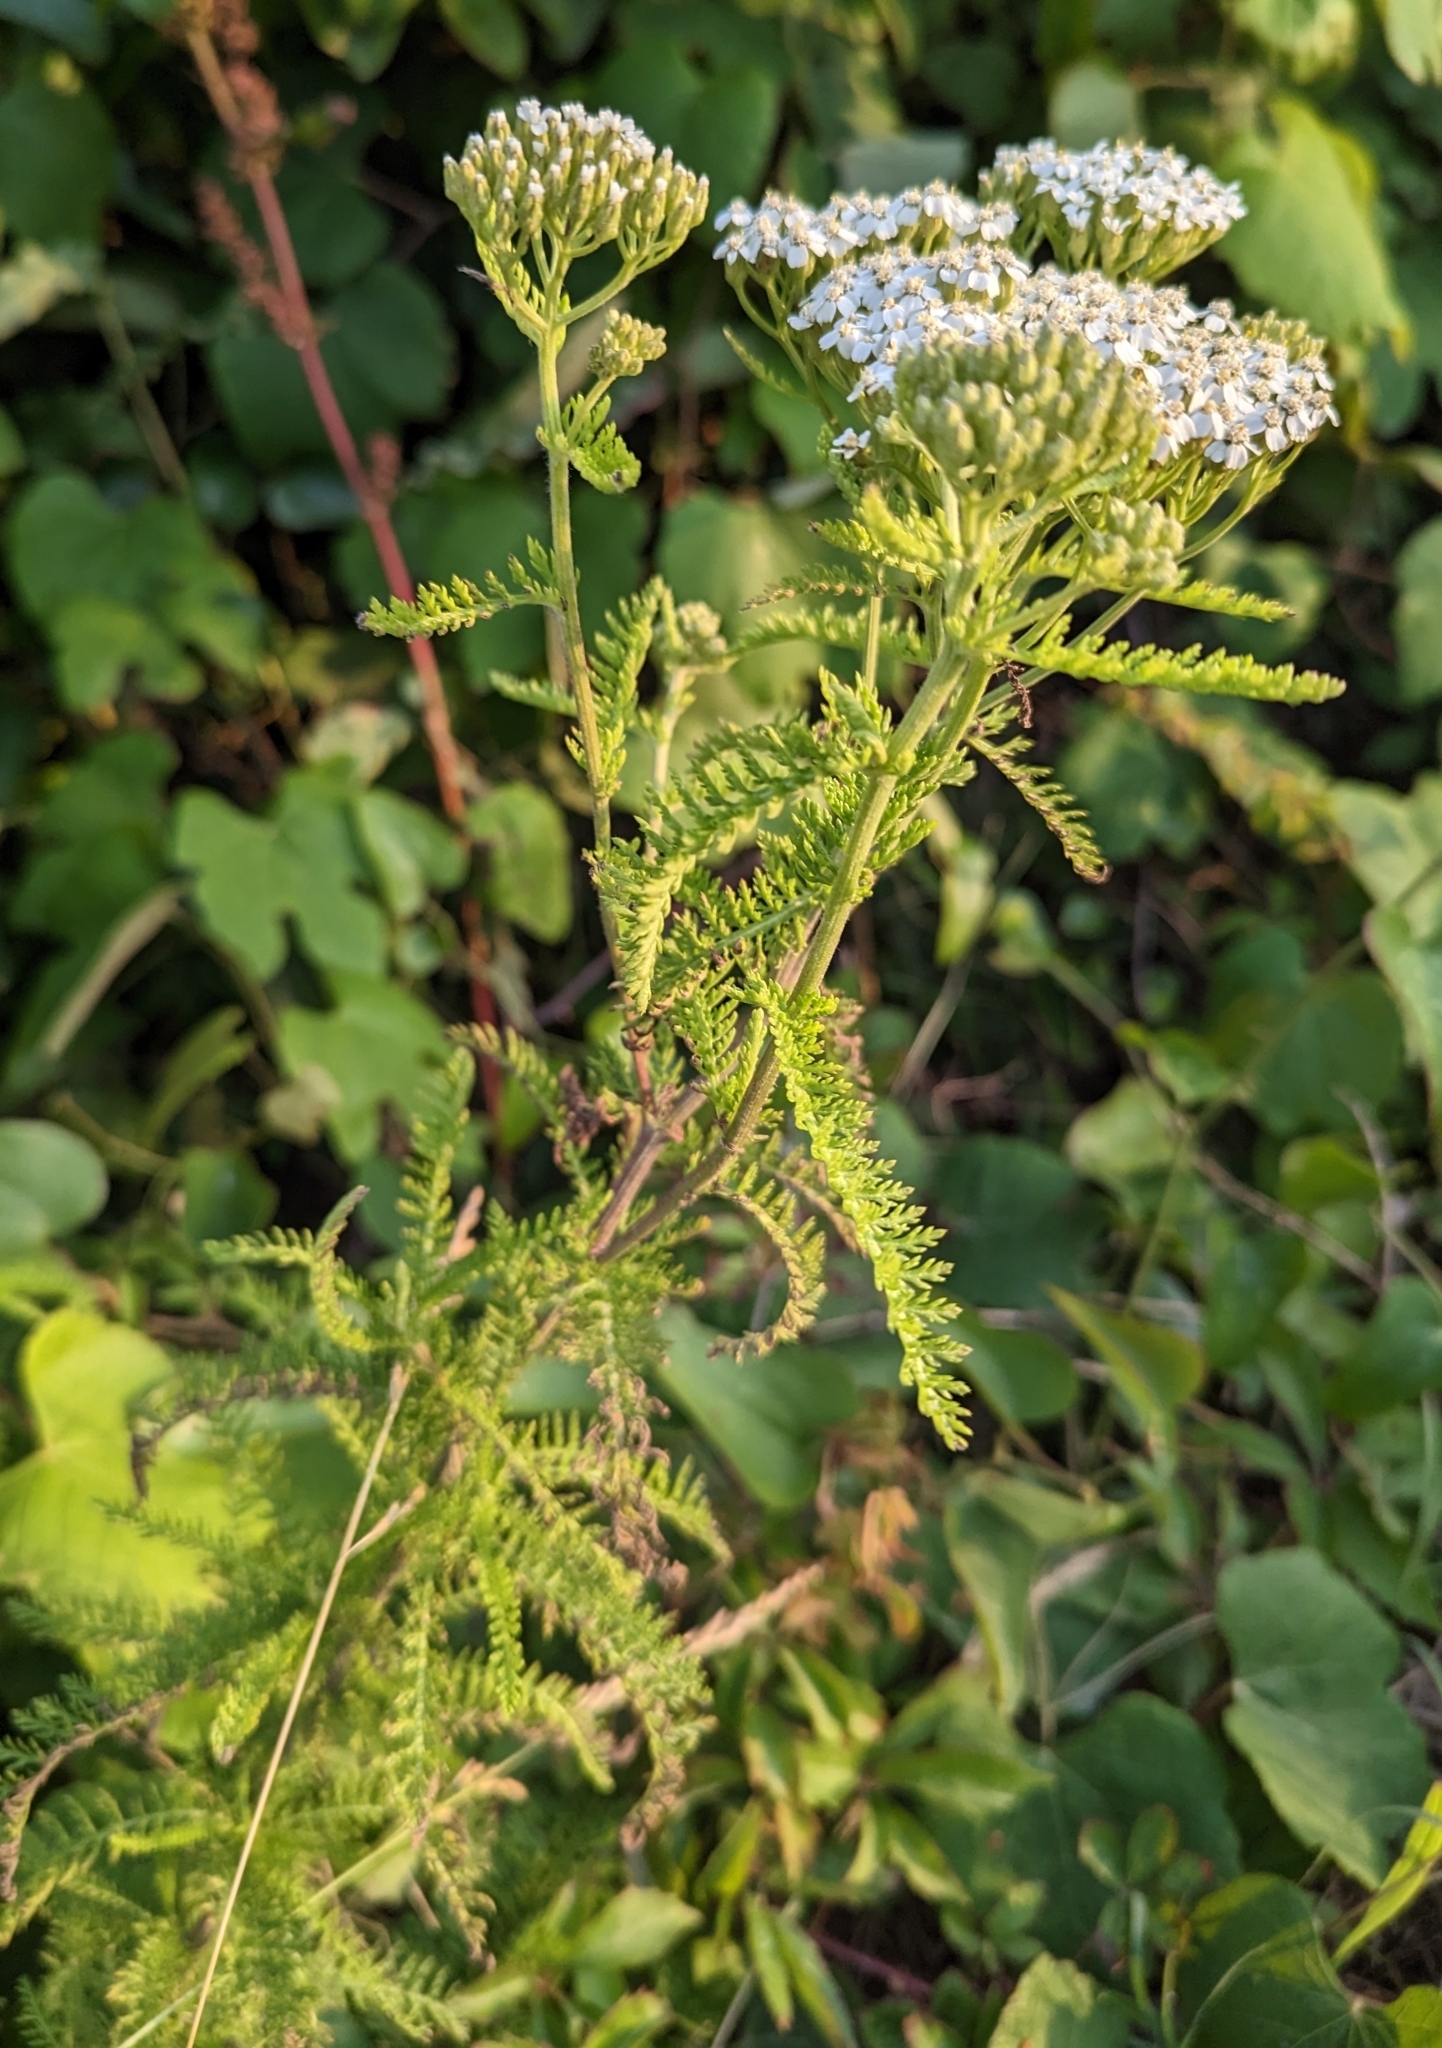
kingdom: Plantae
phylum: Tracheophyta
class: Magnoliopsida
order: Asterales
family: Asteraceae
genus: Achillea
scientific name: Achillea millefolium
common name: Yarrow
